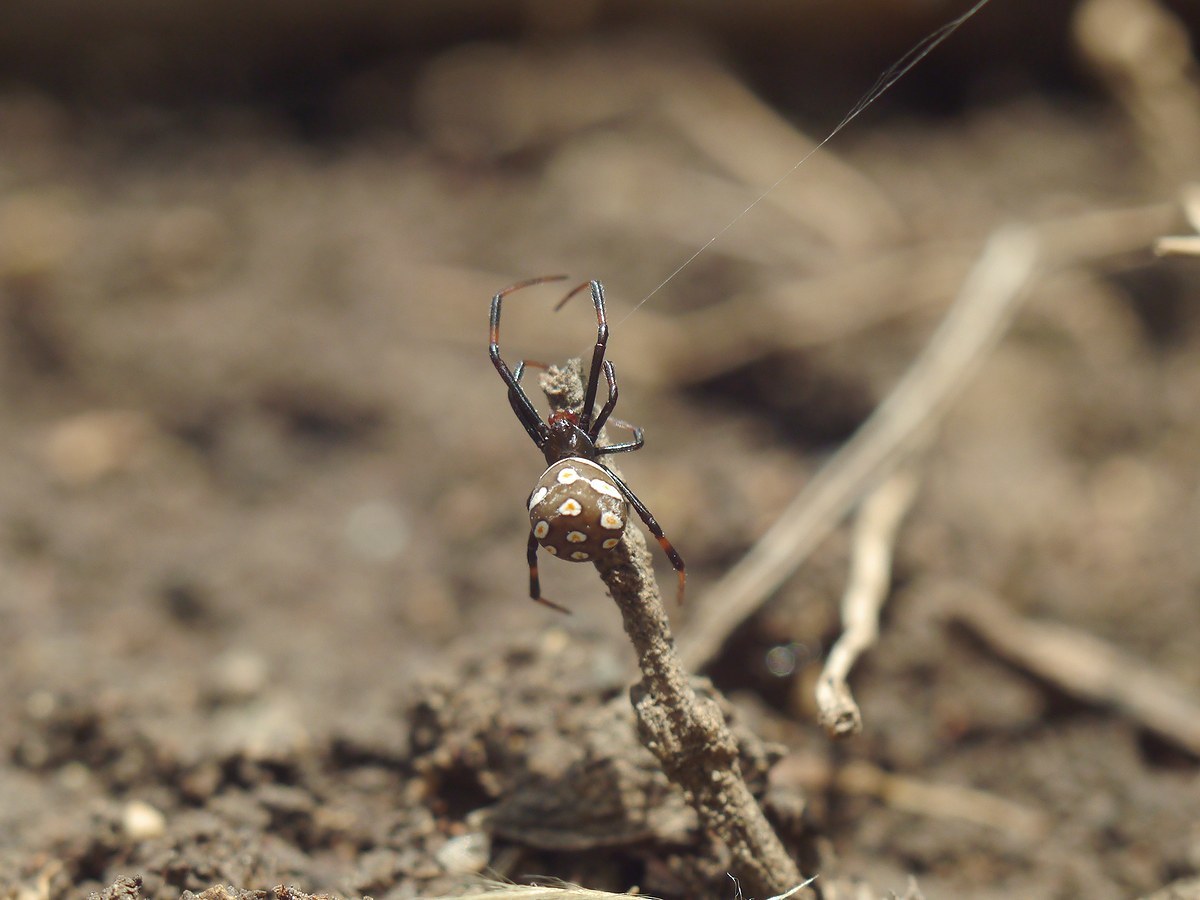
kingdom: Animalia
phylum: Arthropoda
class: Arachnida
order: Araneae
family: Theridiidae
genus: Latrodectus
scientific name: Latrodectus tredecimguttatus
